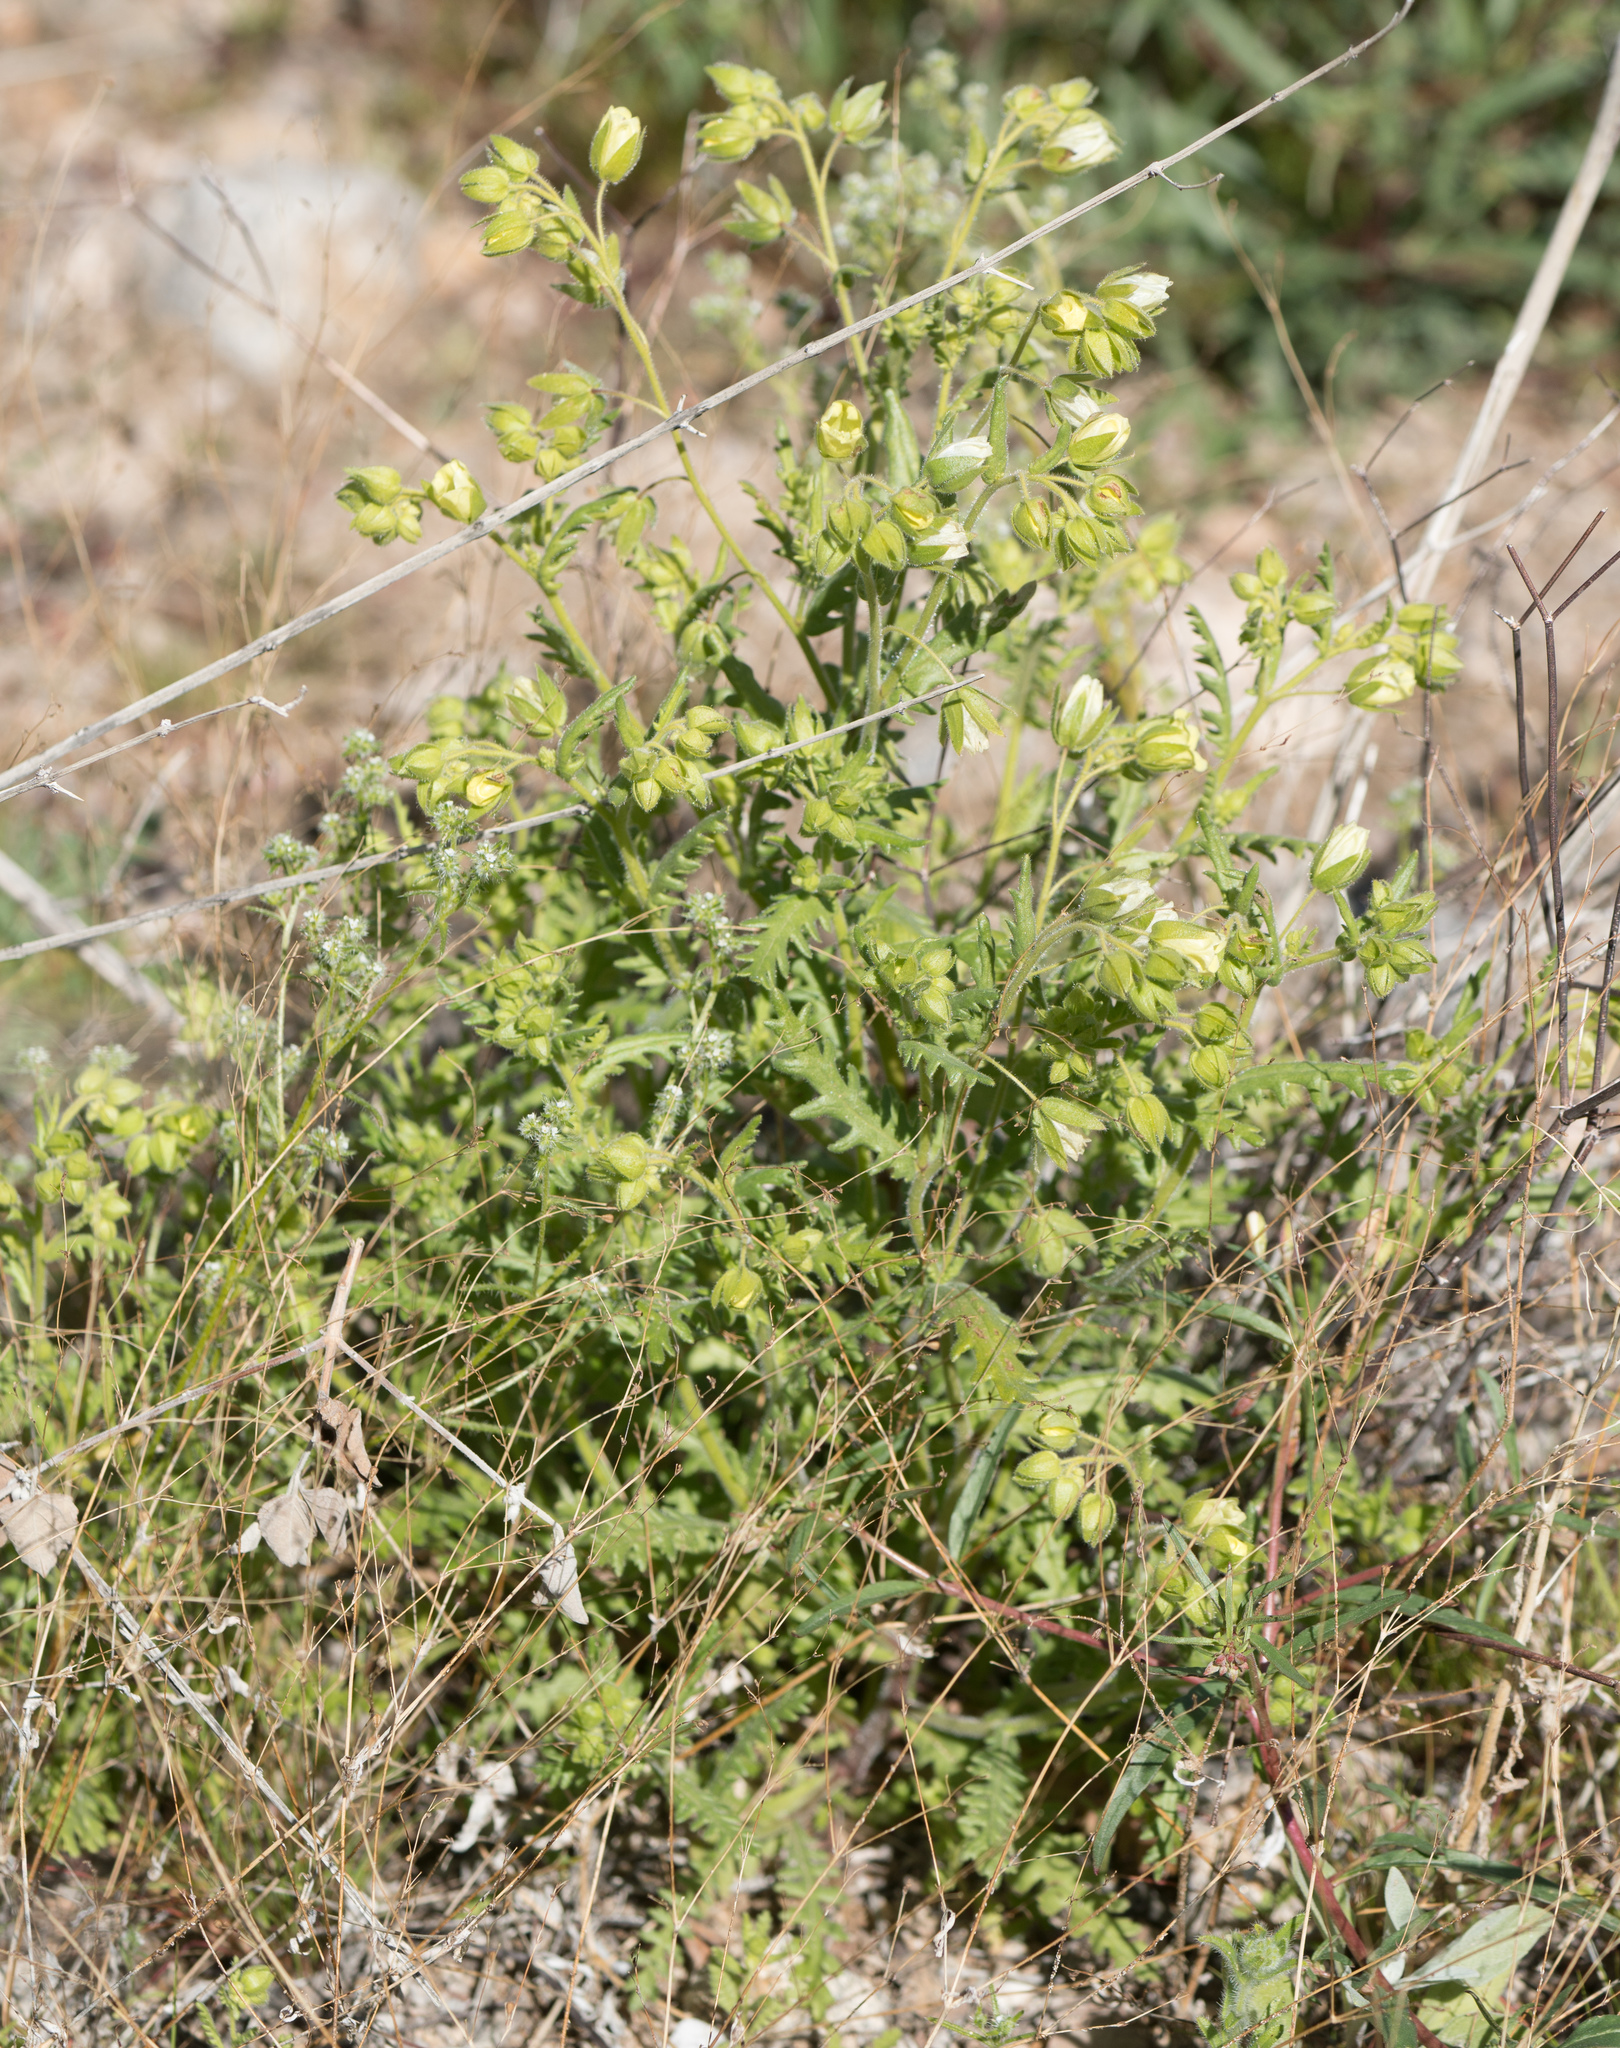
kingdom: Plantae
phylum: Tracheophyta
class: Magnoliopsida
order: Boraginales
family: Hydrophyllaceae
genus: Emmenanthe
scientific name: Emmenanthe penduliflora
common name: Whispering-bells
